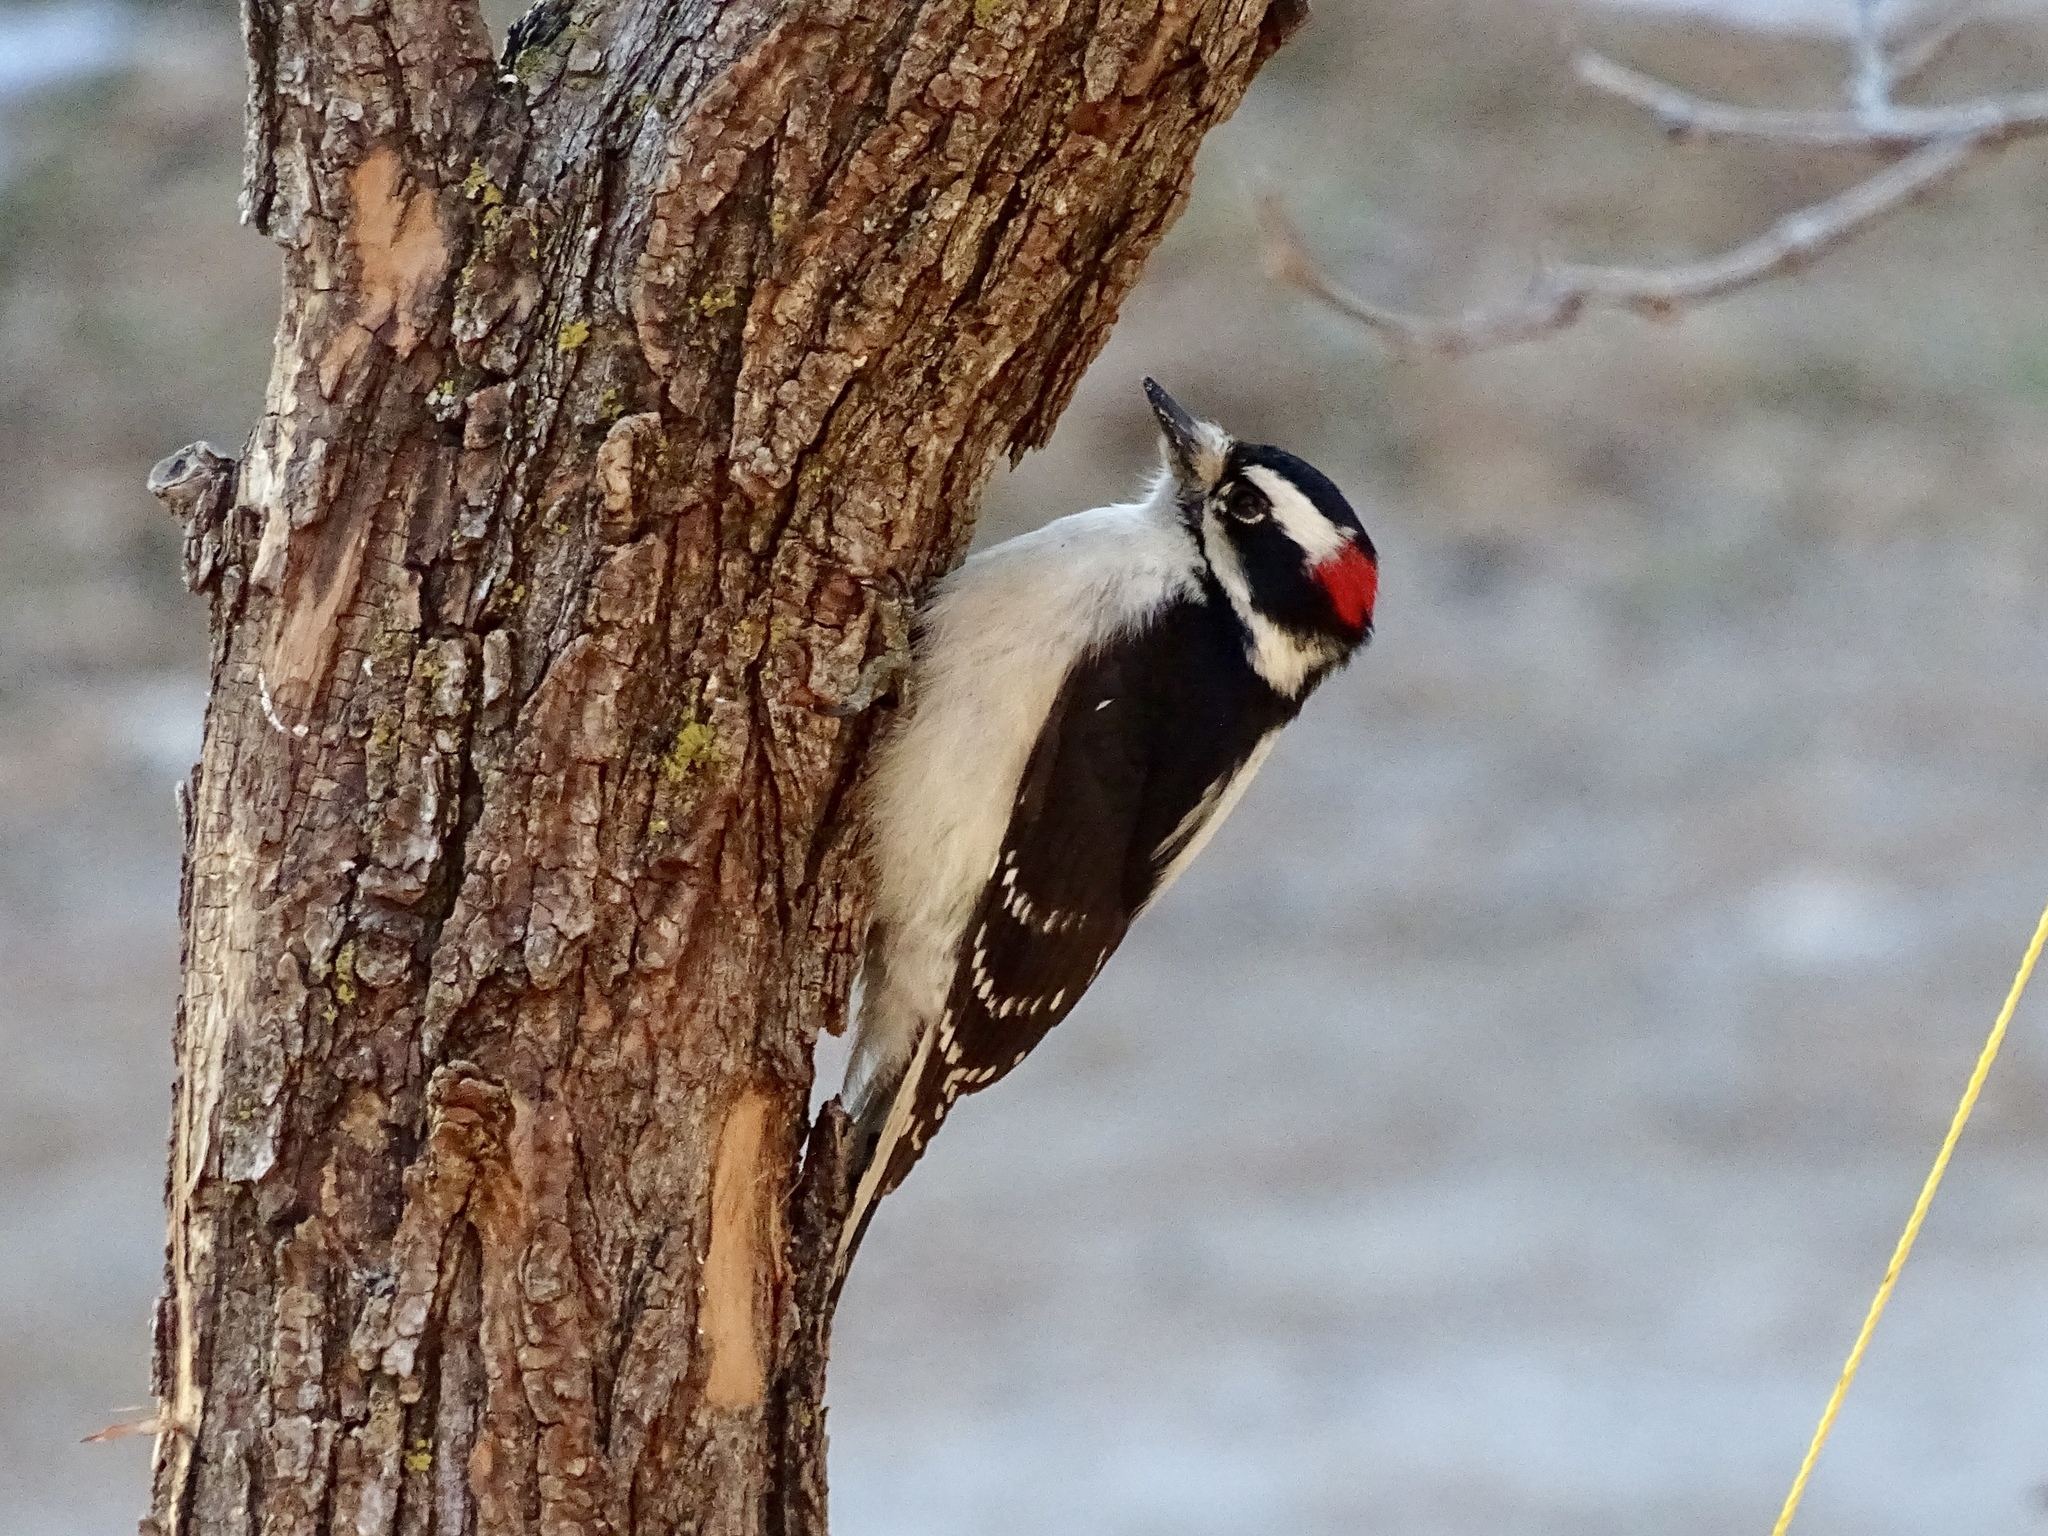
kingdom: Animalia
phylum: Chordata
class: Aves
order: Piciformes
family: Picidae
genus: Dryobates
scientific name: Dryobates pubescens
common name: Downy woodpecker
